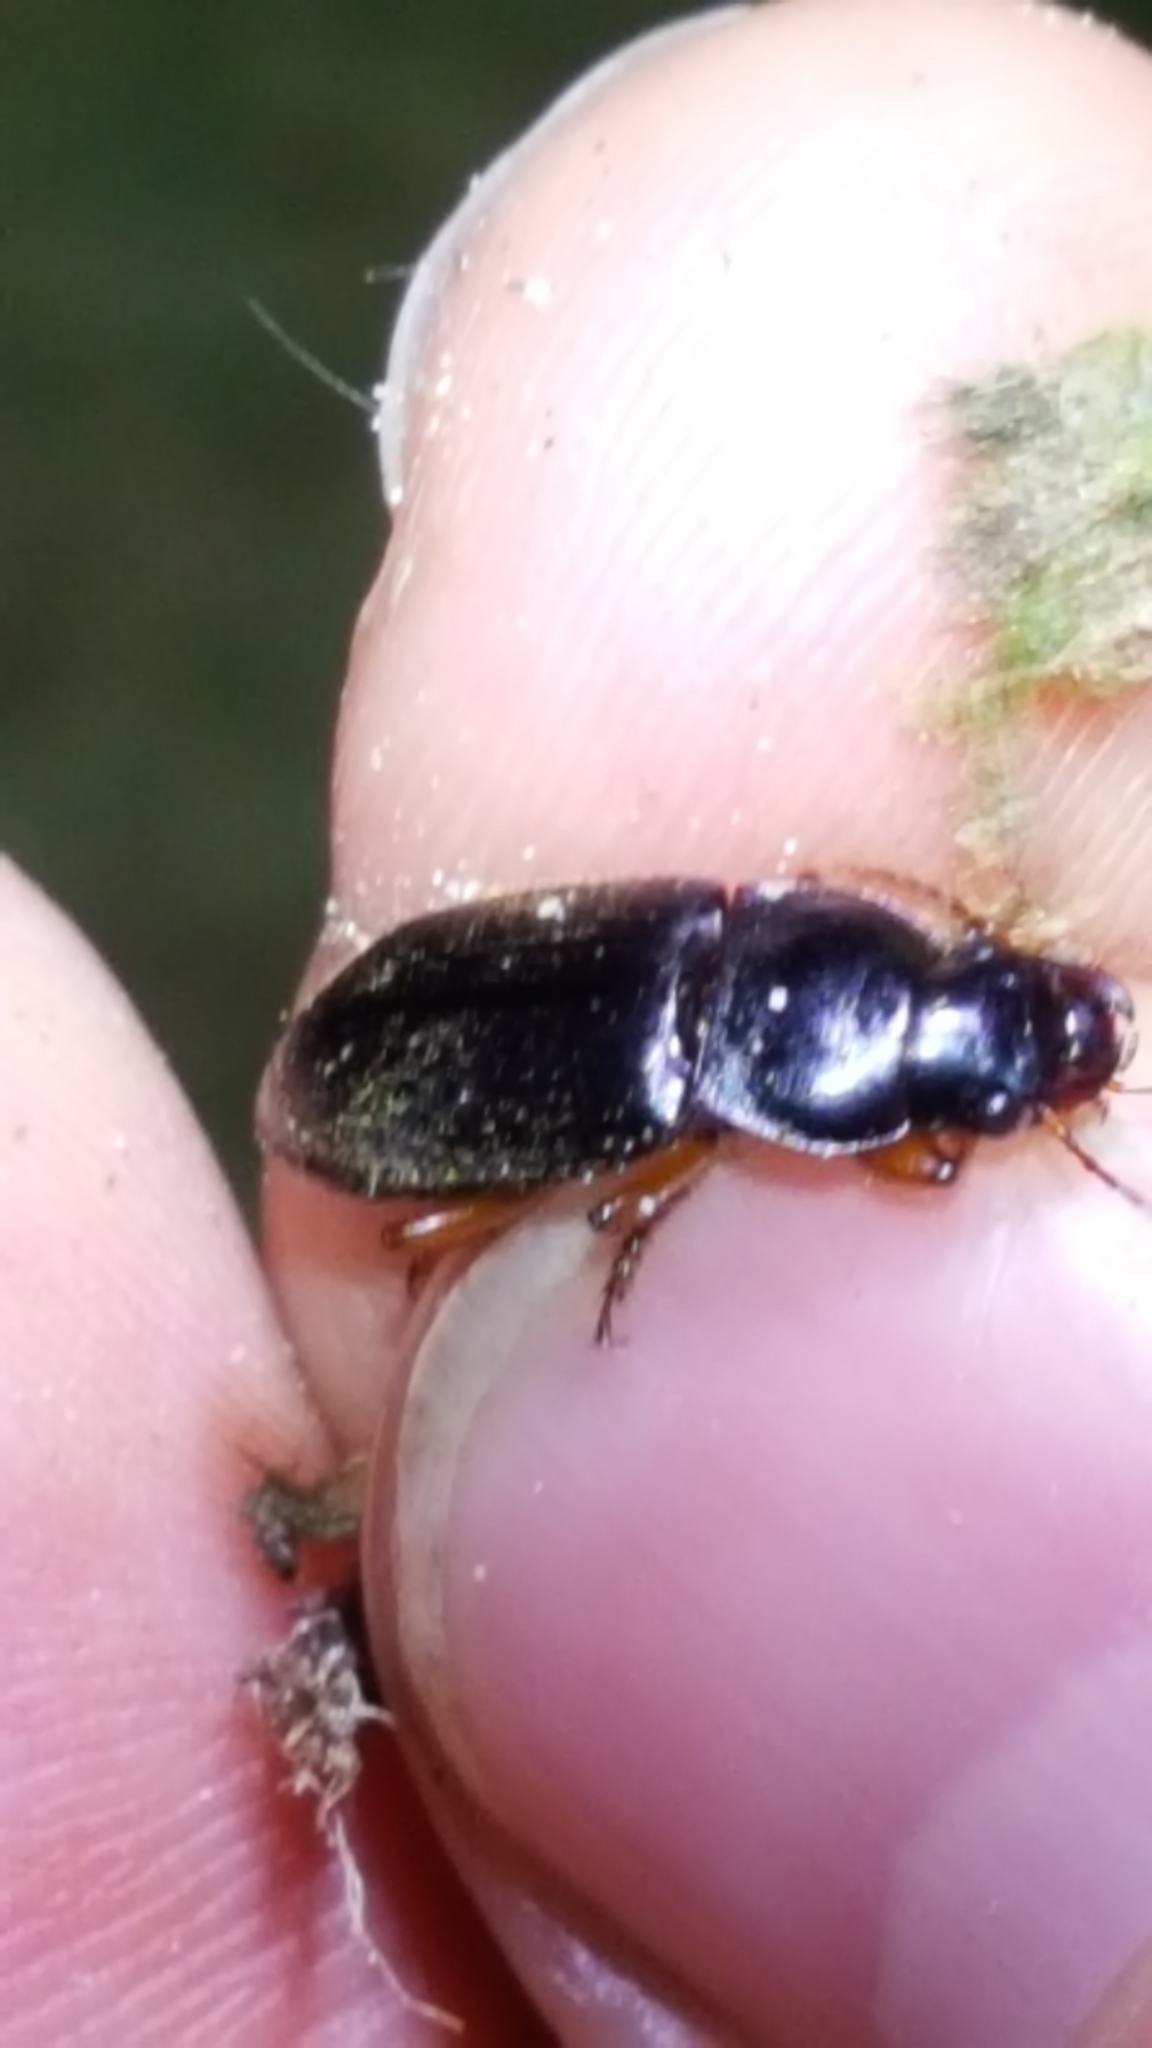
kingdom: Animalia
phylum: Arthropoda
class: Insecta
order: Coleoptera
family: Carabidae
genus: Harpalus
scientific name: Harpalus rufipes
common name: Strawberry harp ground beetle
